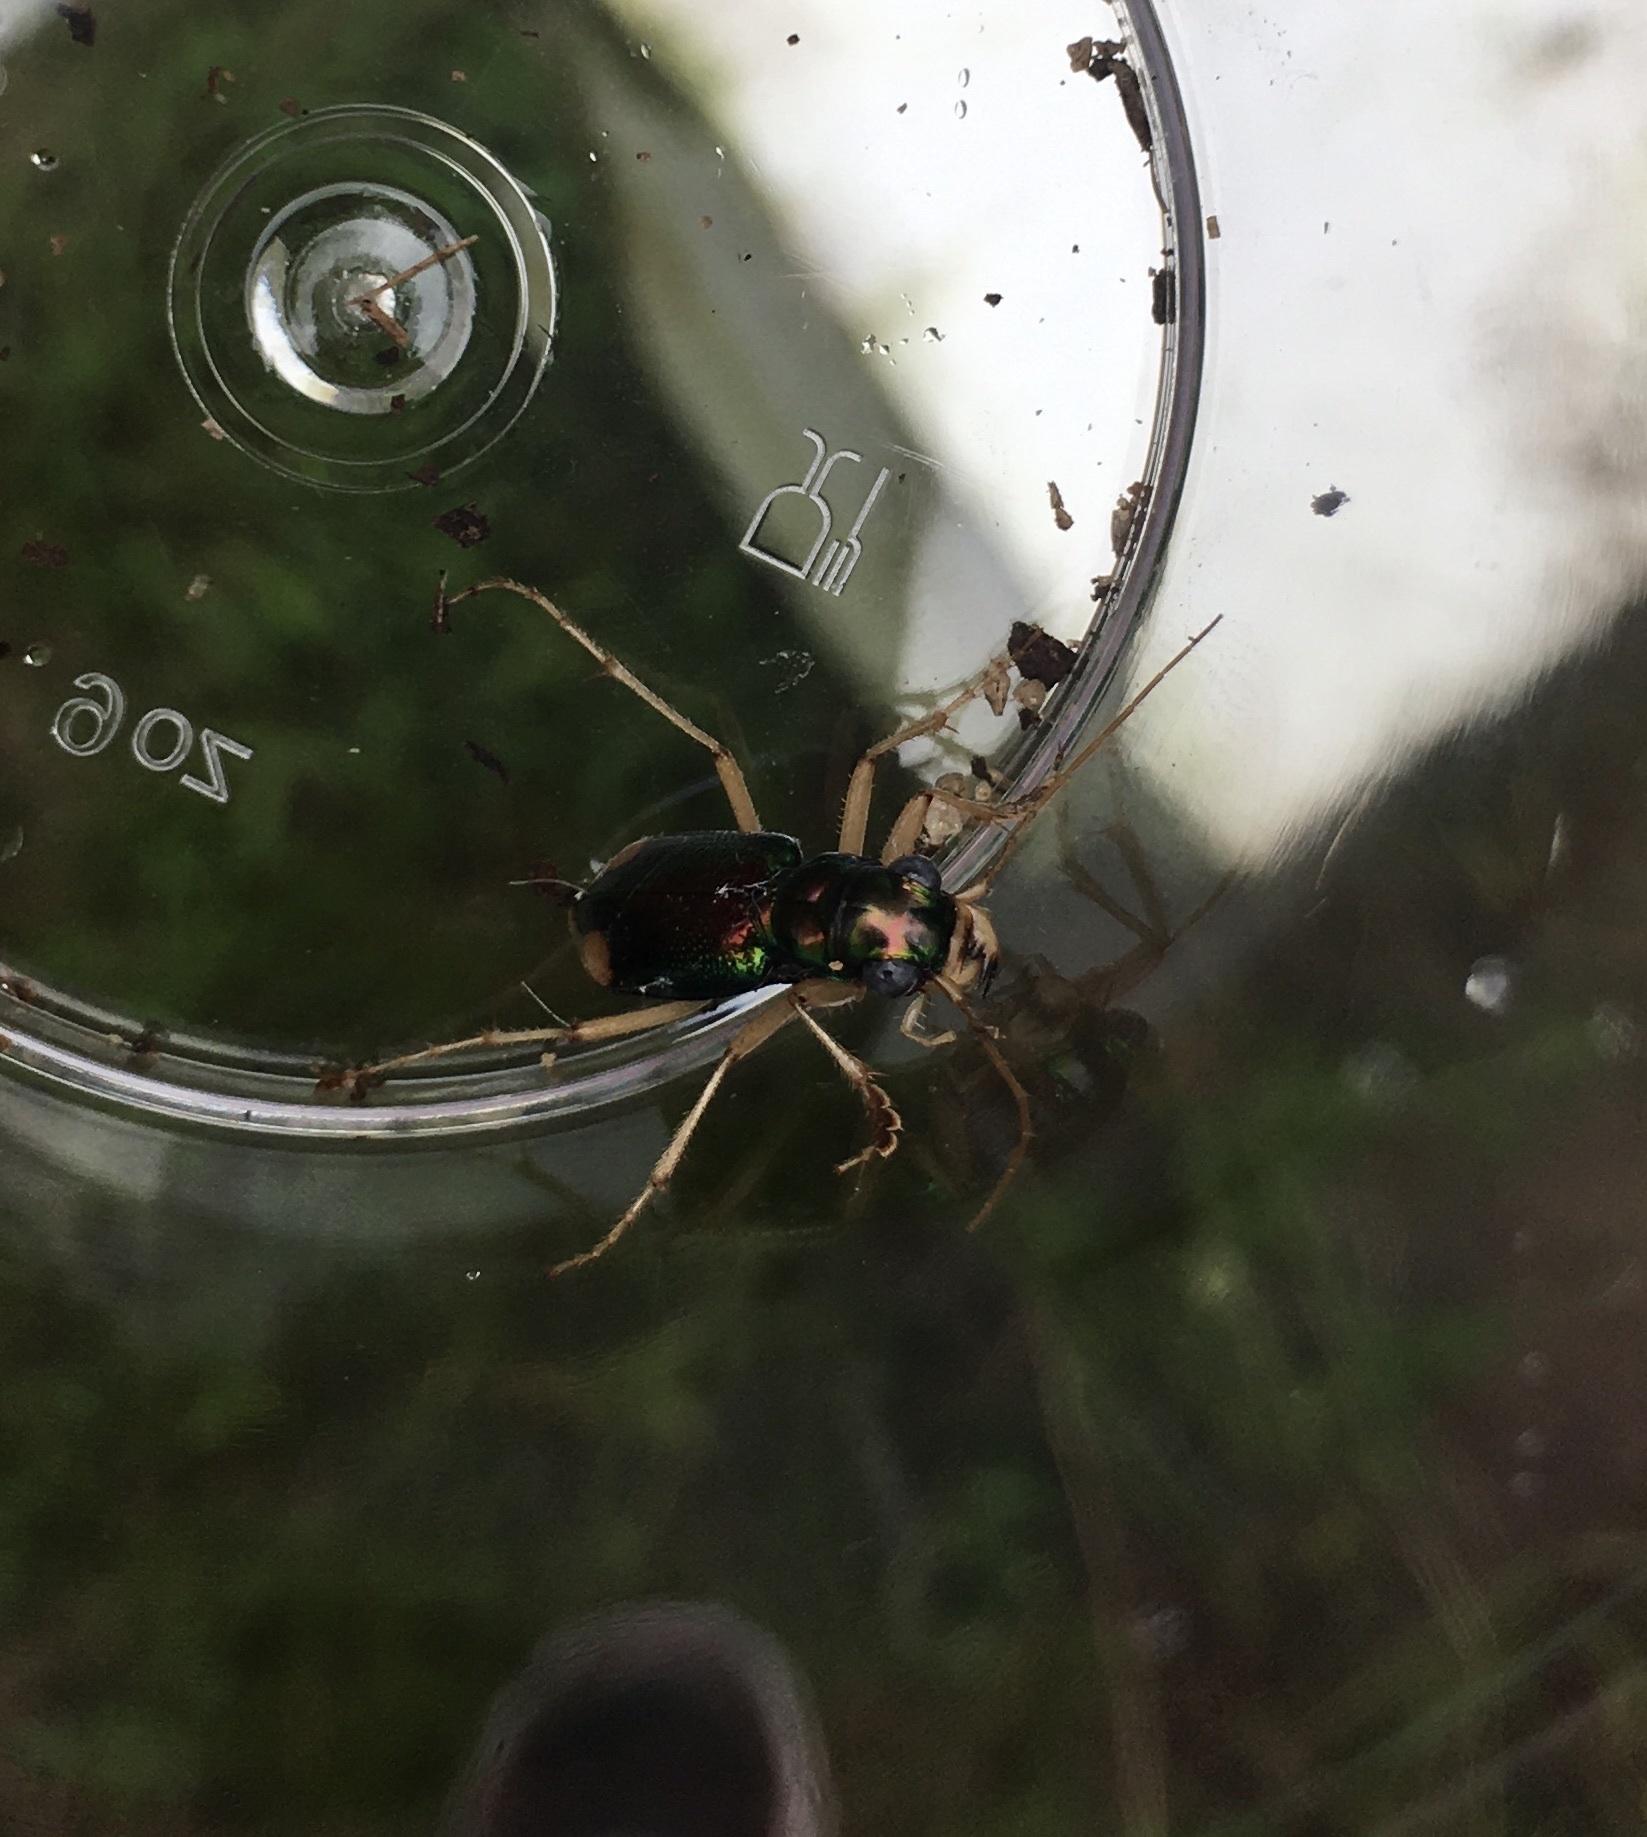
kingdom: Animalia
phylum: Arthropoda
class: Insecta
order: Coleoptera
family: Carabidae
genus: Tetracha
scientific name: Tetracha carolina
